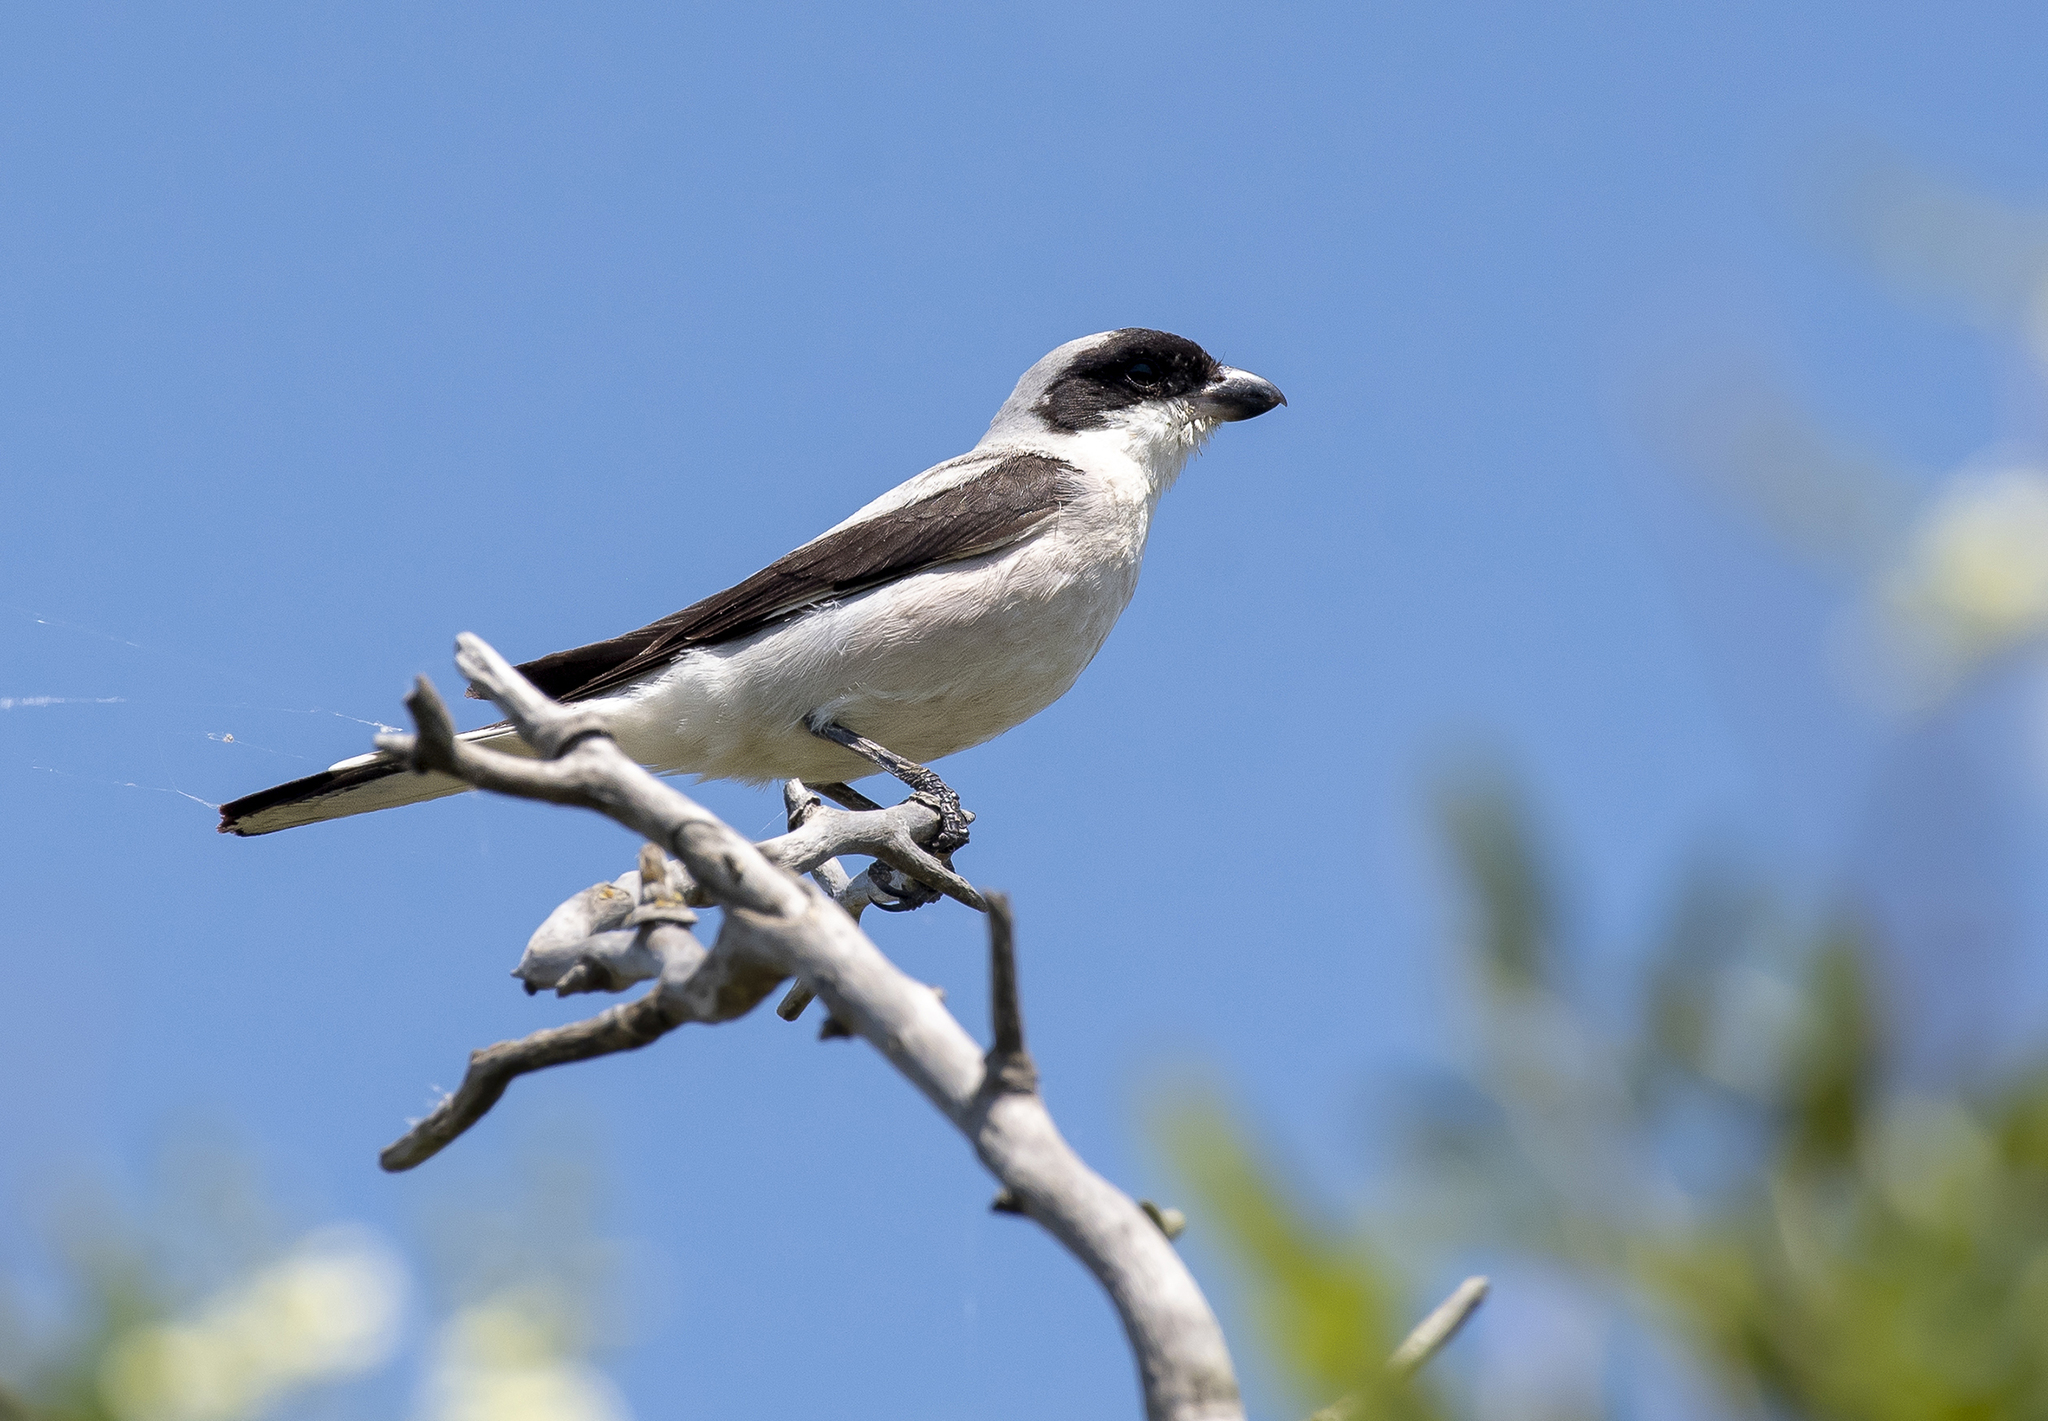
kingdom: Animalia
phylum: Chordata
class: Aves
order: Passeriformes
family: Laniidae
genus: Lanius
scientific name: Lanius minor
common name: Lesser grey shrike
